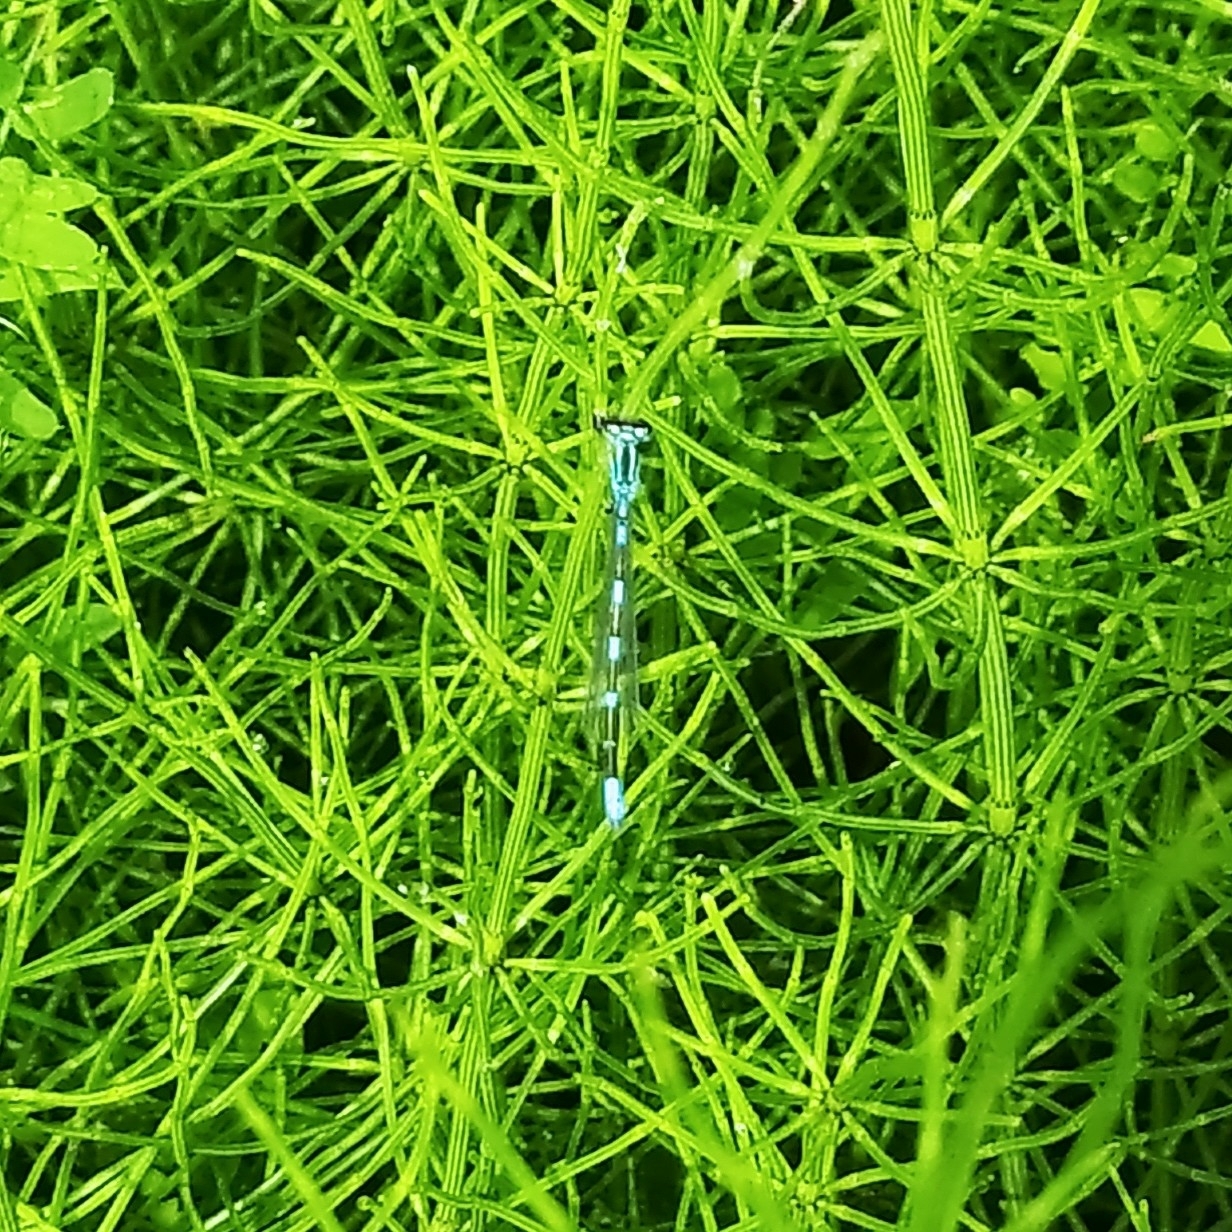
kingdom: Animalia
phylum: Arthropoda
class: Insecta
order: Odonata
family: Coenagrionidae
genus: Coenagrion
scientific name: Coenagrion johanssoni
